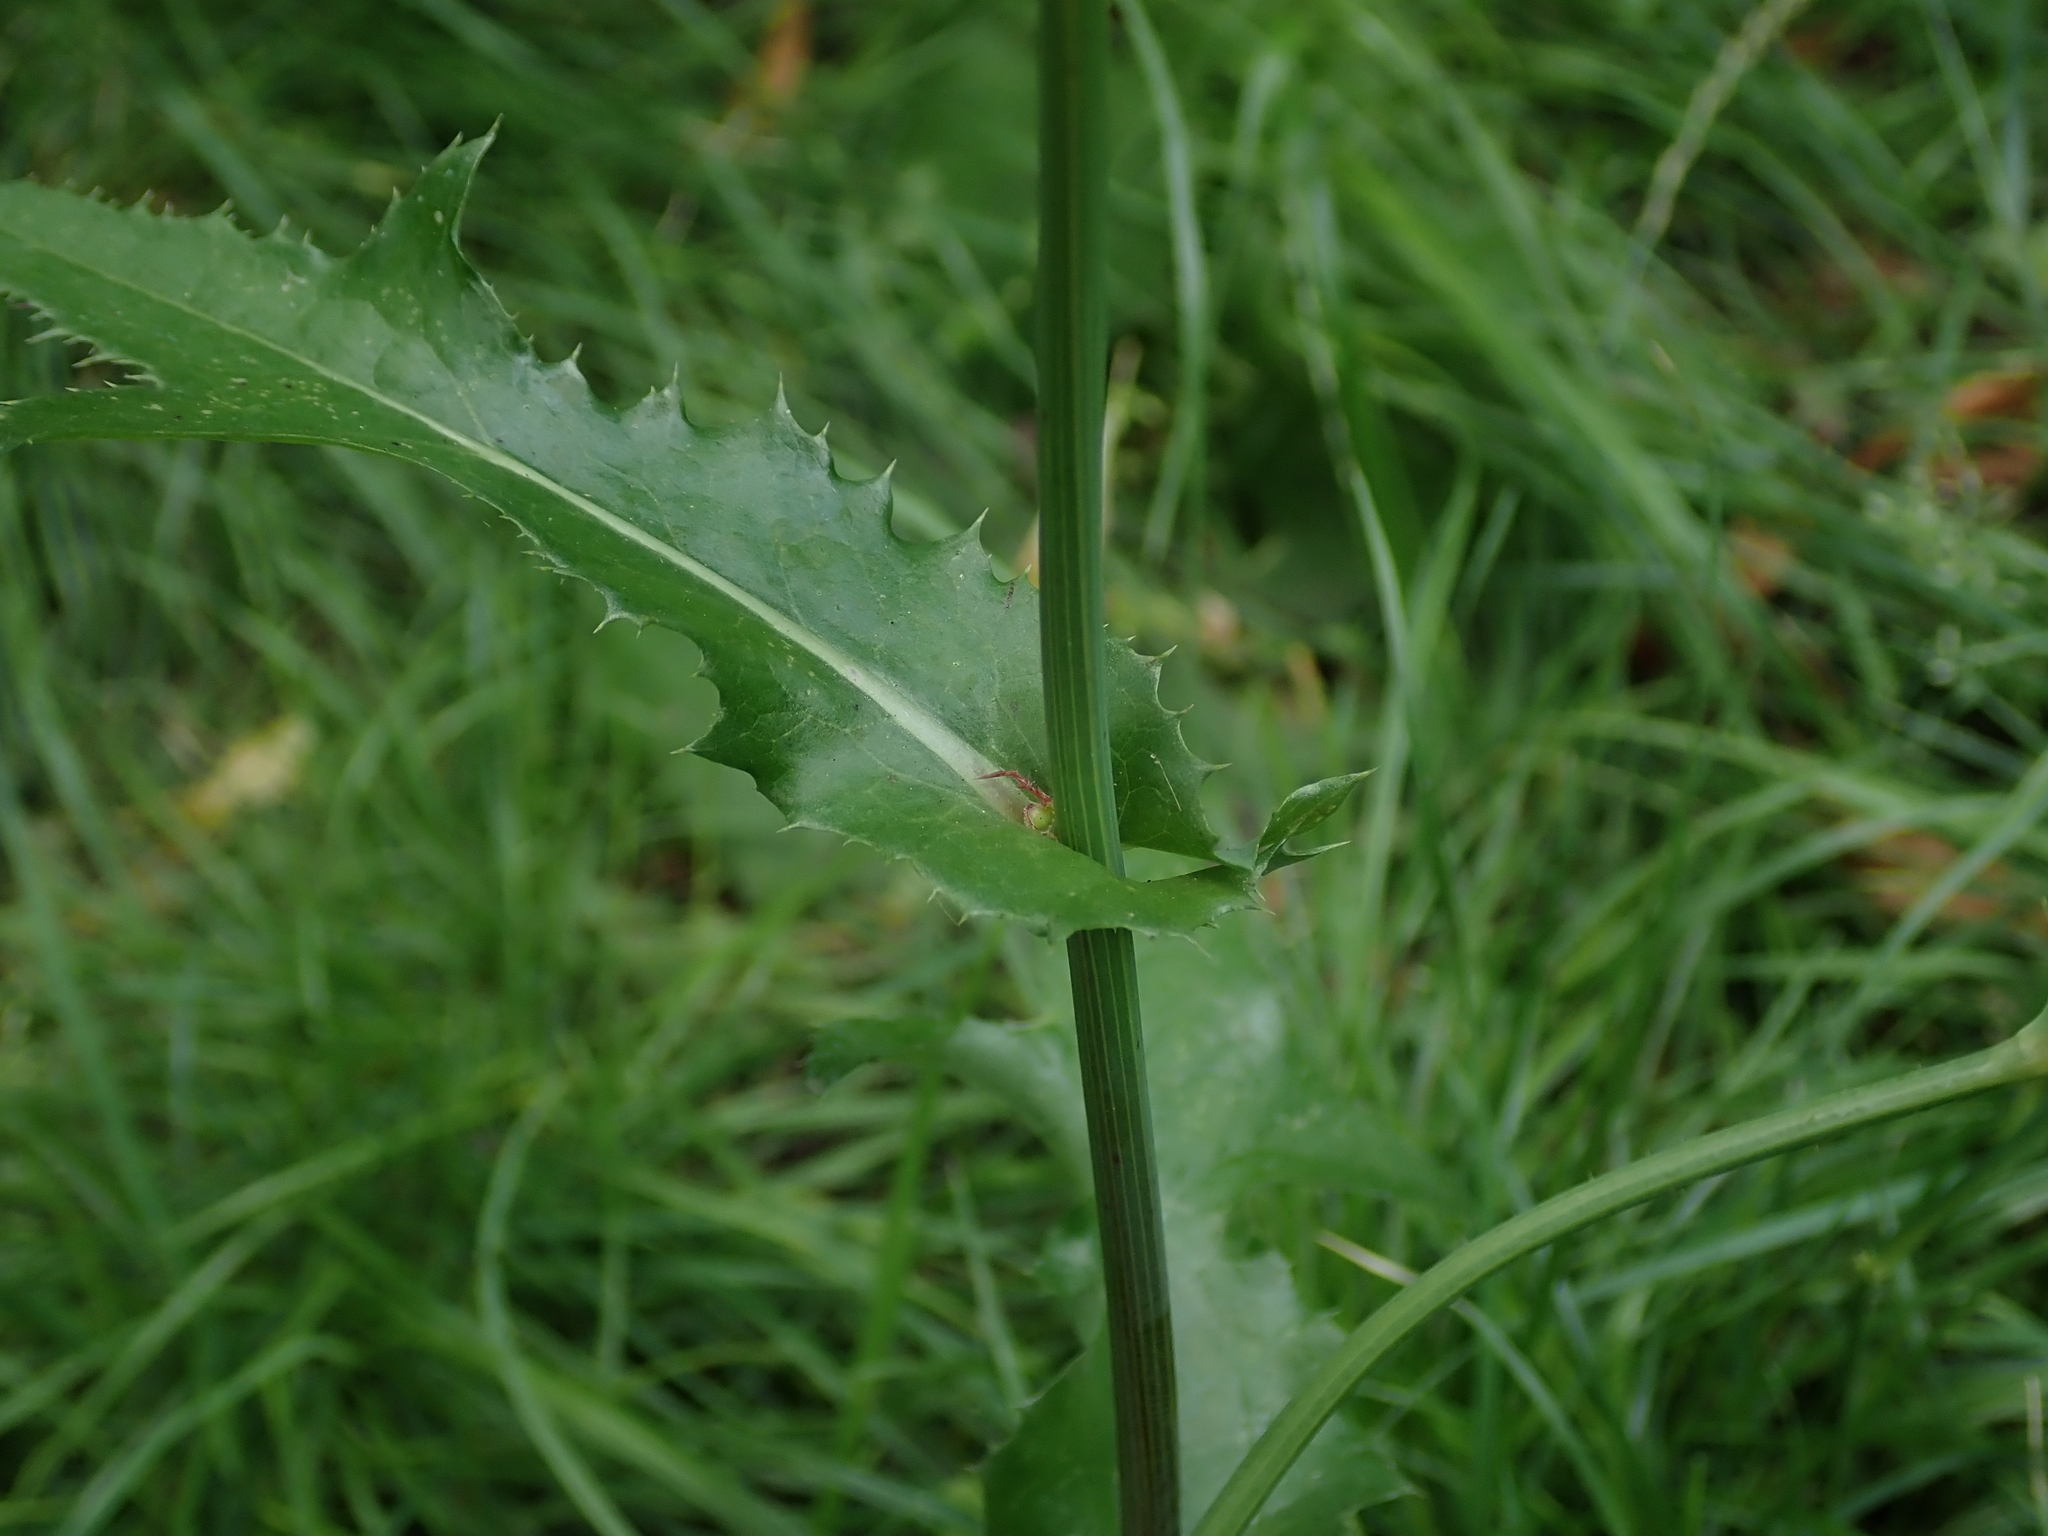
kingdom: Plantae
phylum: Tracheophyta
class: Magnoliopsida
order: Asterales
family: Asteraceae
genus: Sonchus
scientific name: Sonchus oleraceus
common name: Common sowthistle
